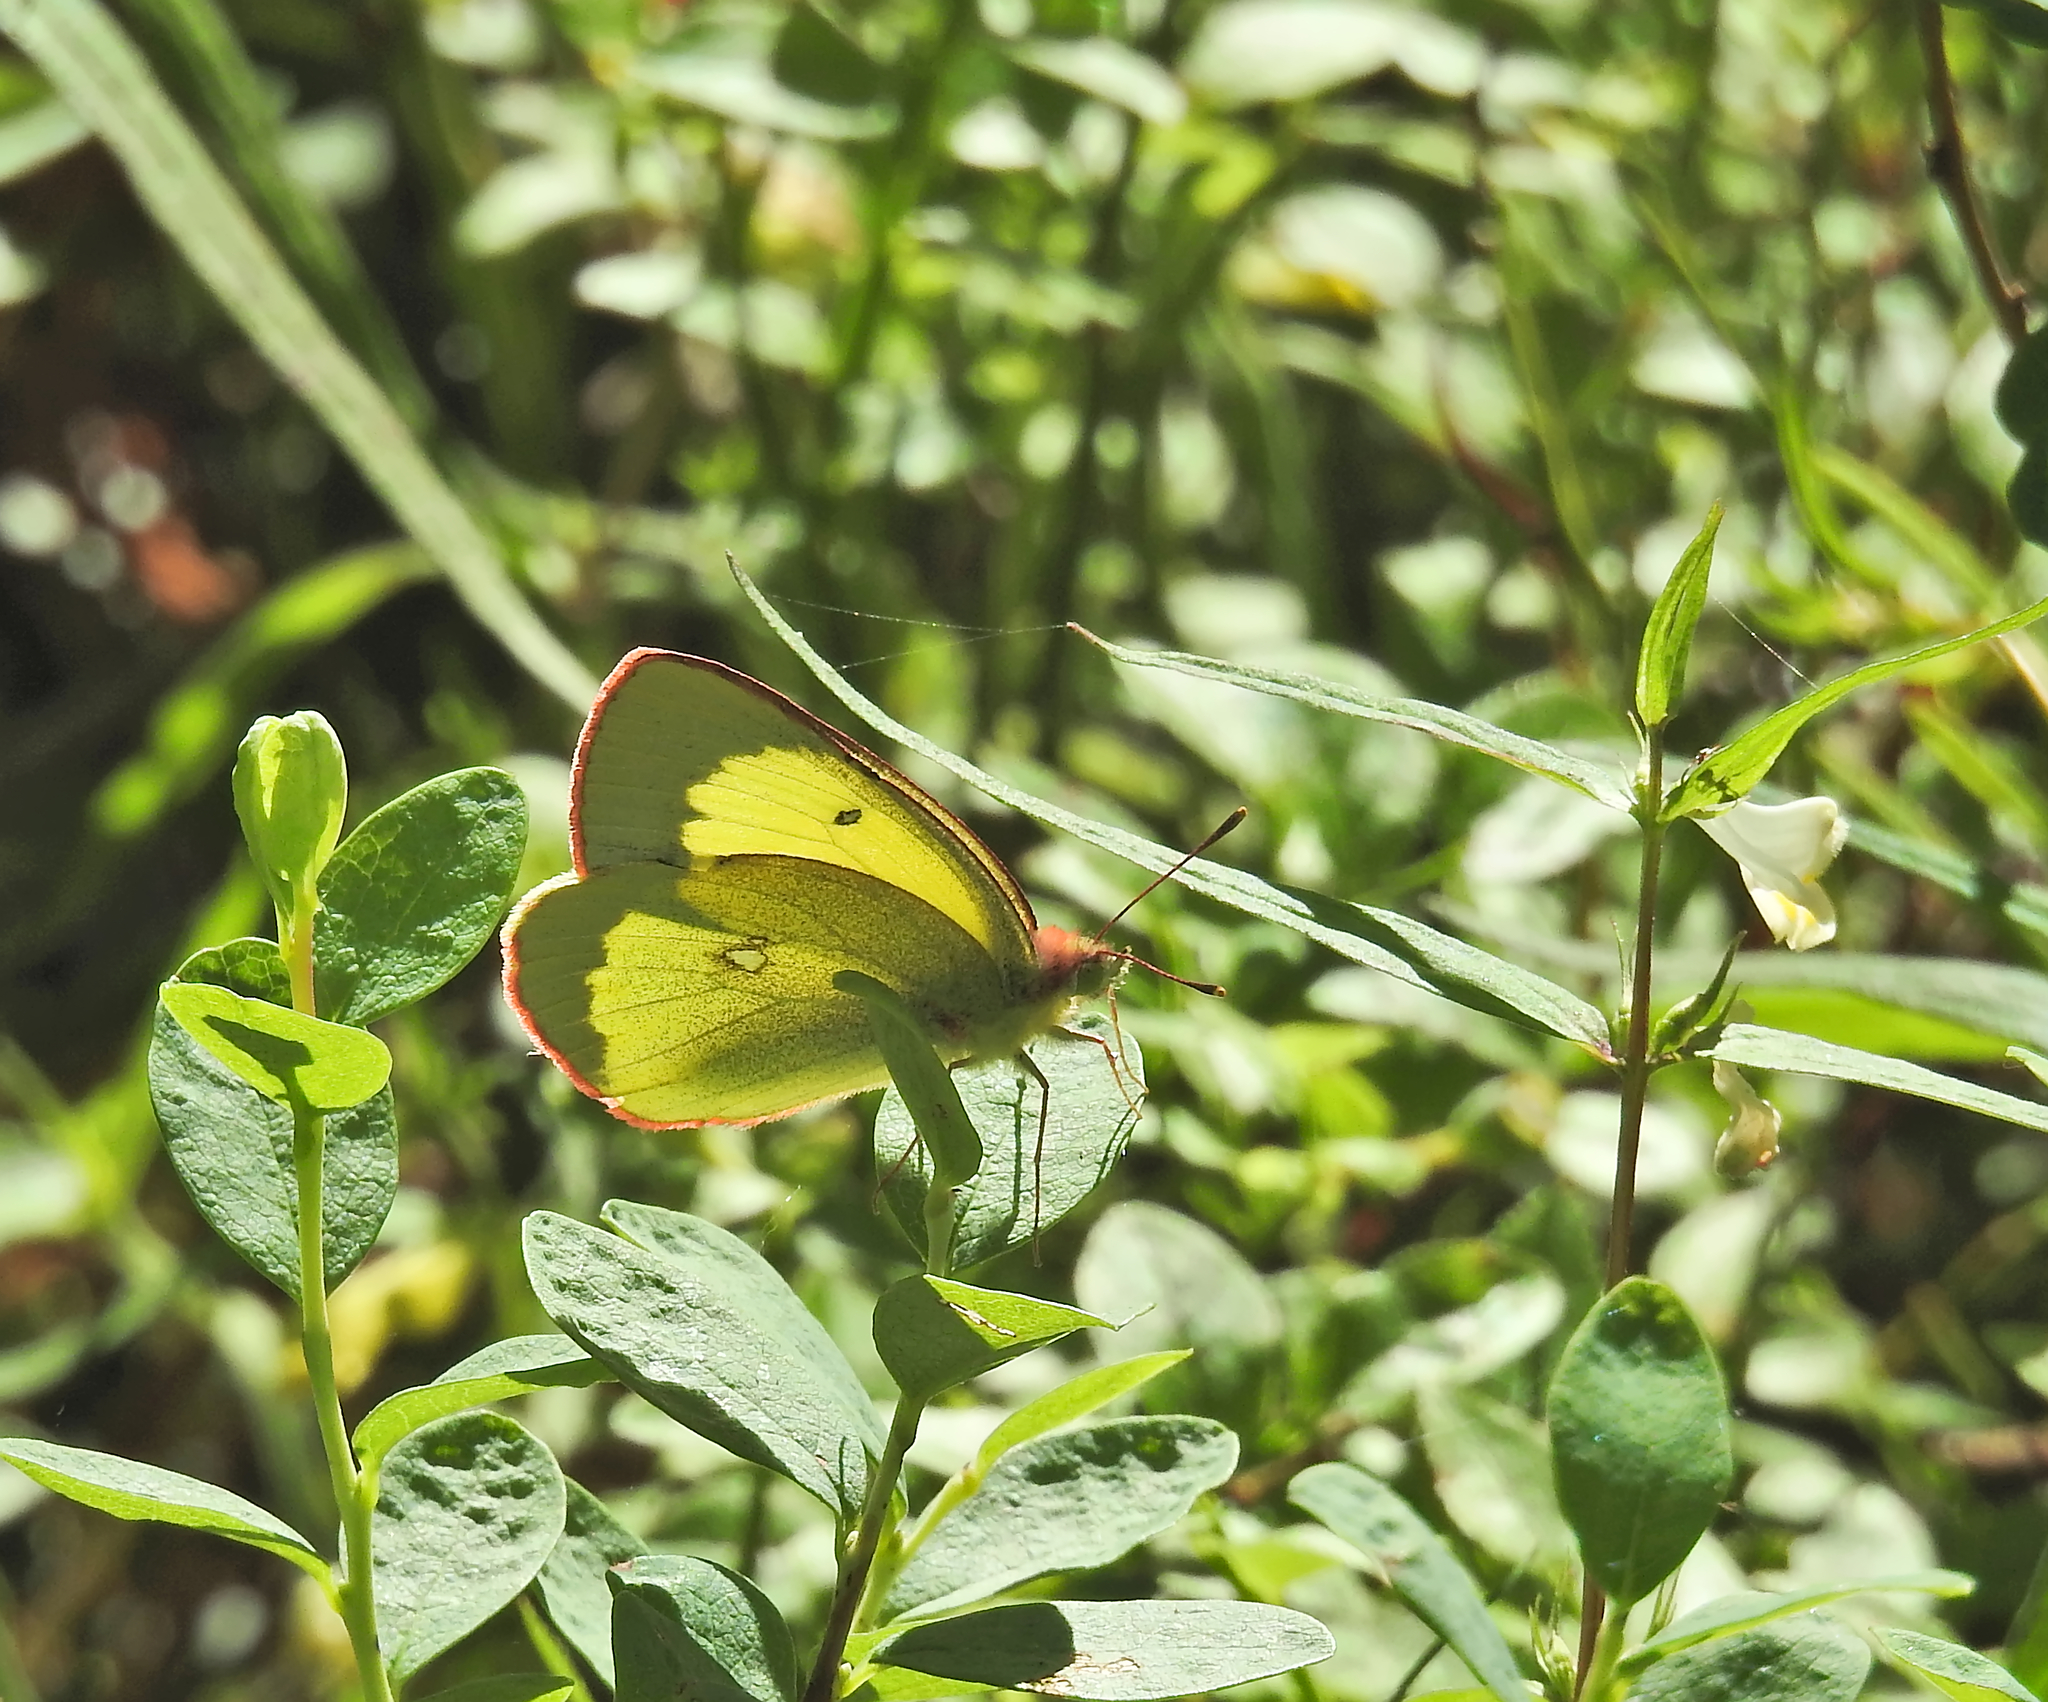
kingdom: Animalia
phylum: Arthropoda
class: Insecta
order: Lepidoptera
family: Pieridae
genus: Colias
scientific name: Colias palaeno
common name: Moorland clouded yellow
